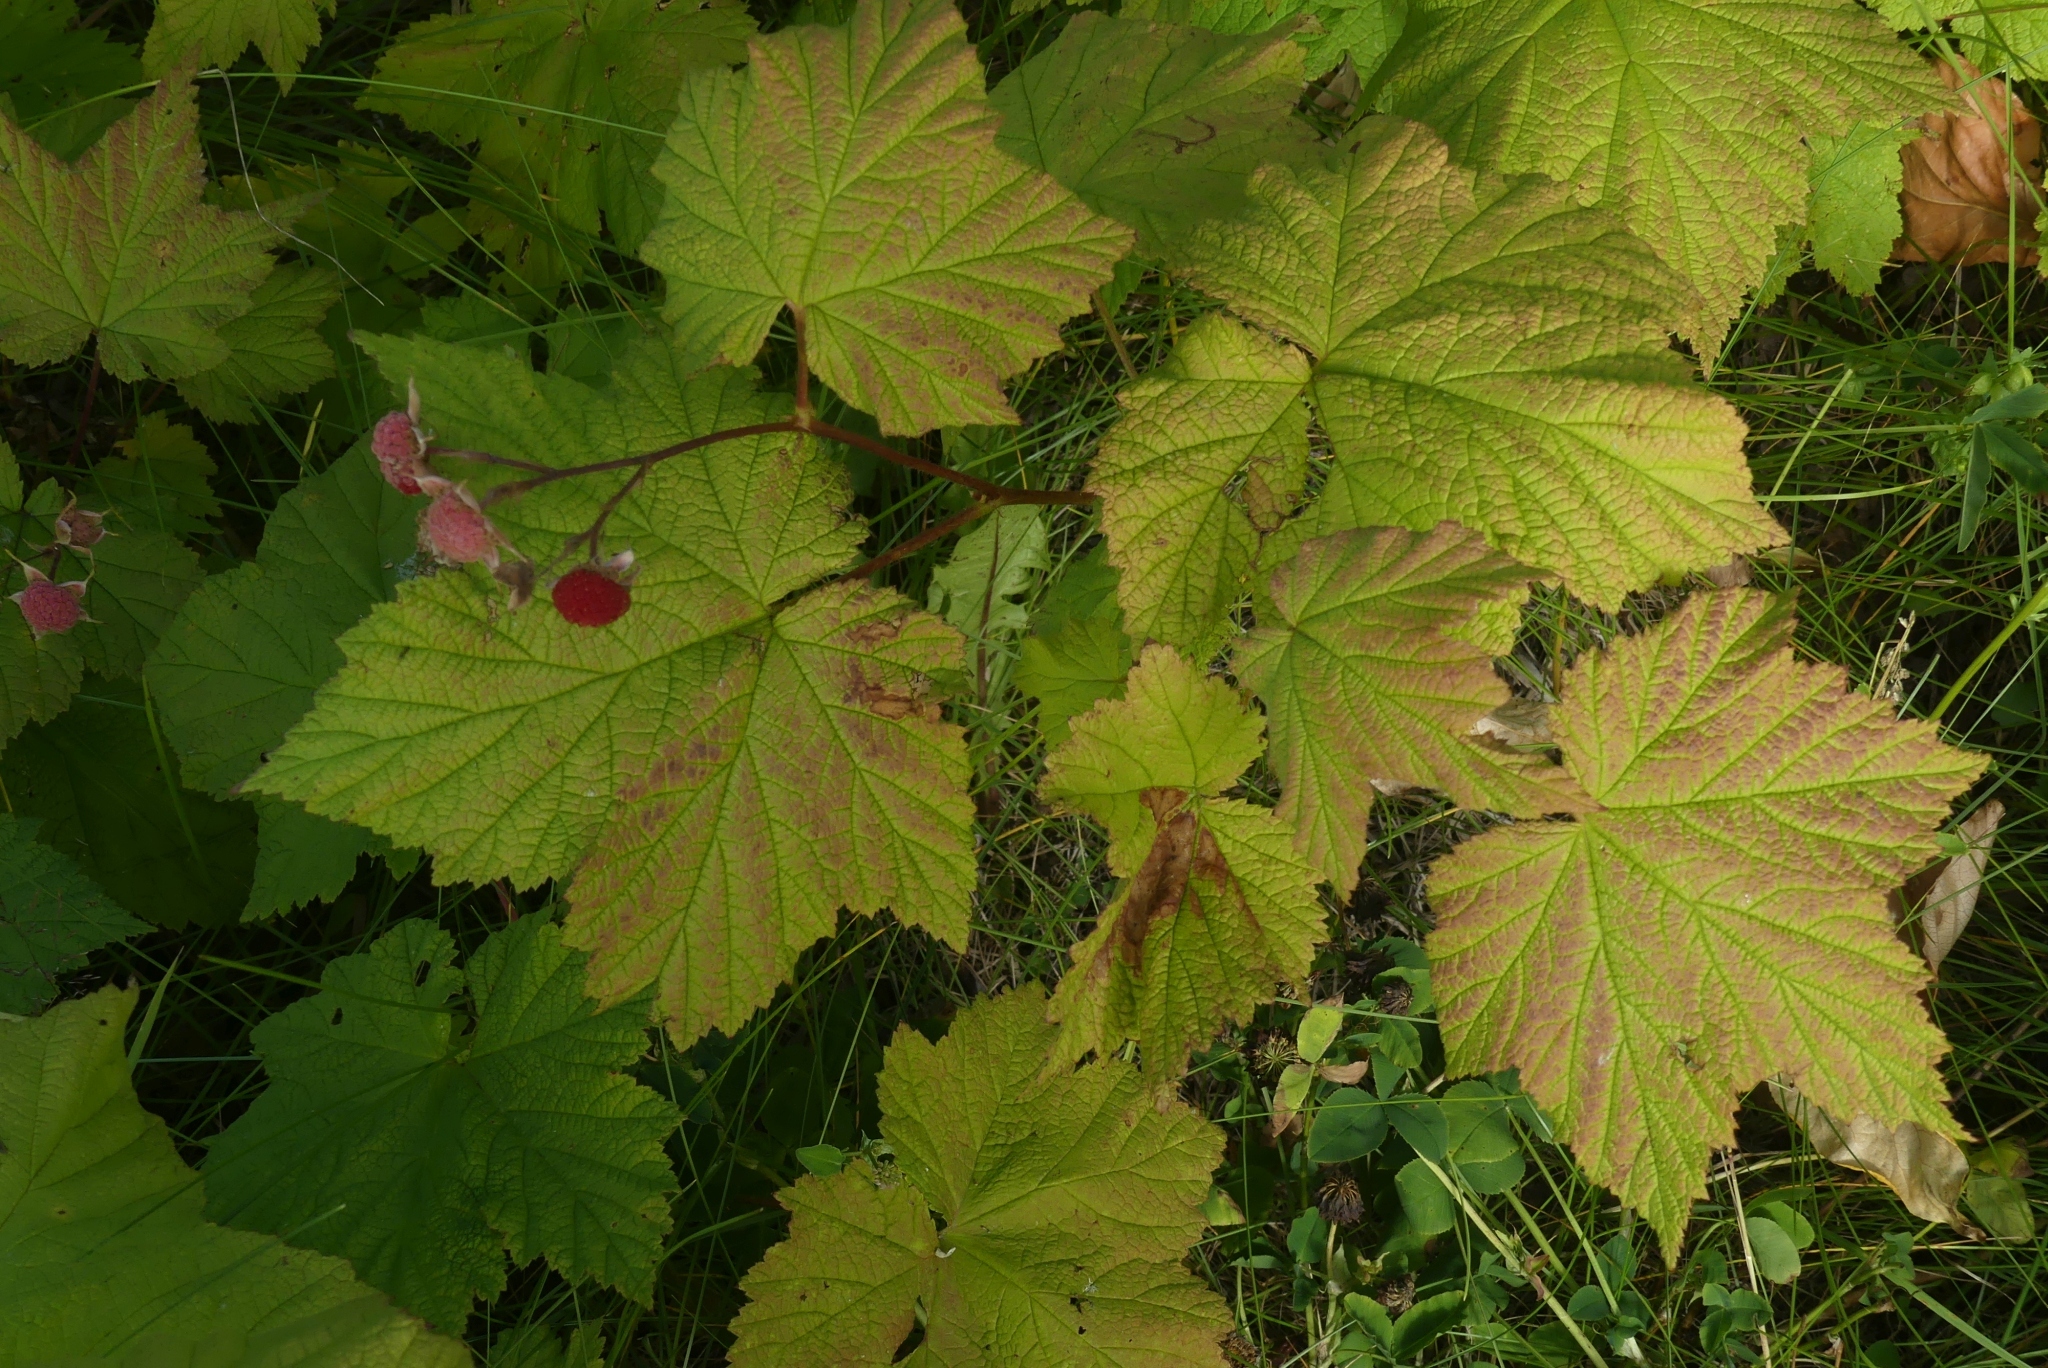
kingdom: Plantae
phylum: Tracheophyta
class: Magnoliopsida
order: Rosales
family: Rosaceae
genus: Rubus
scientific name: Rubus parviflorus
